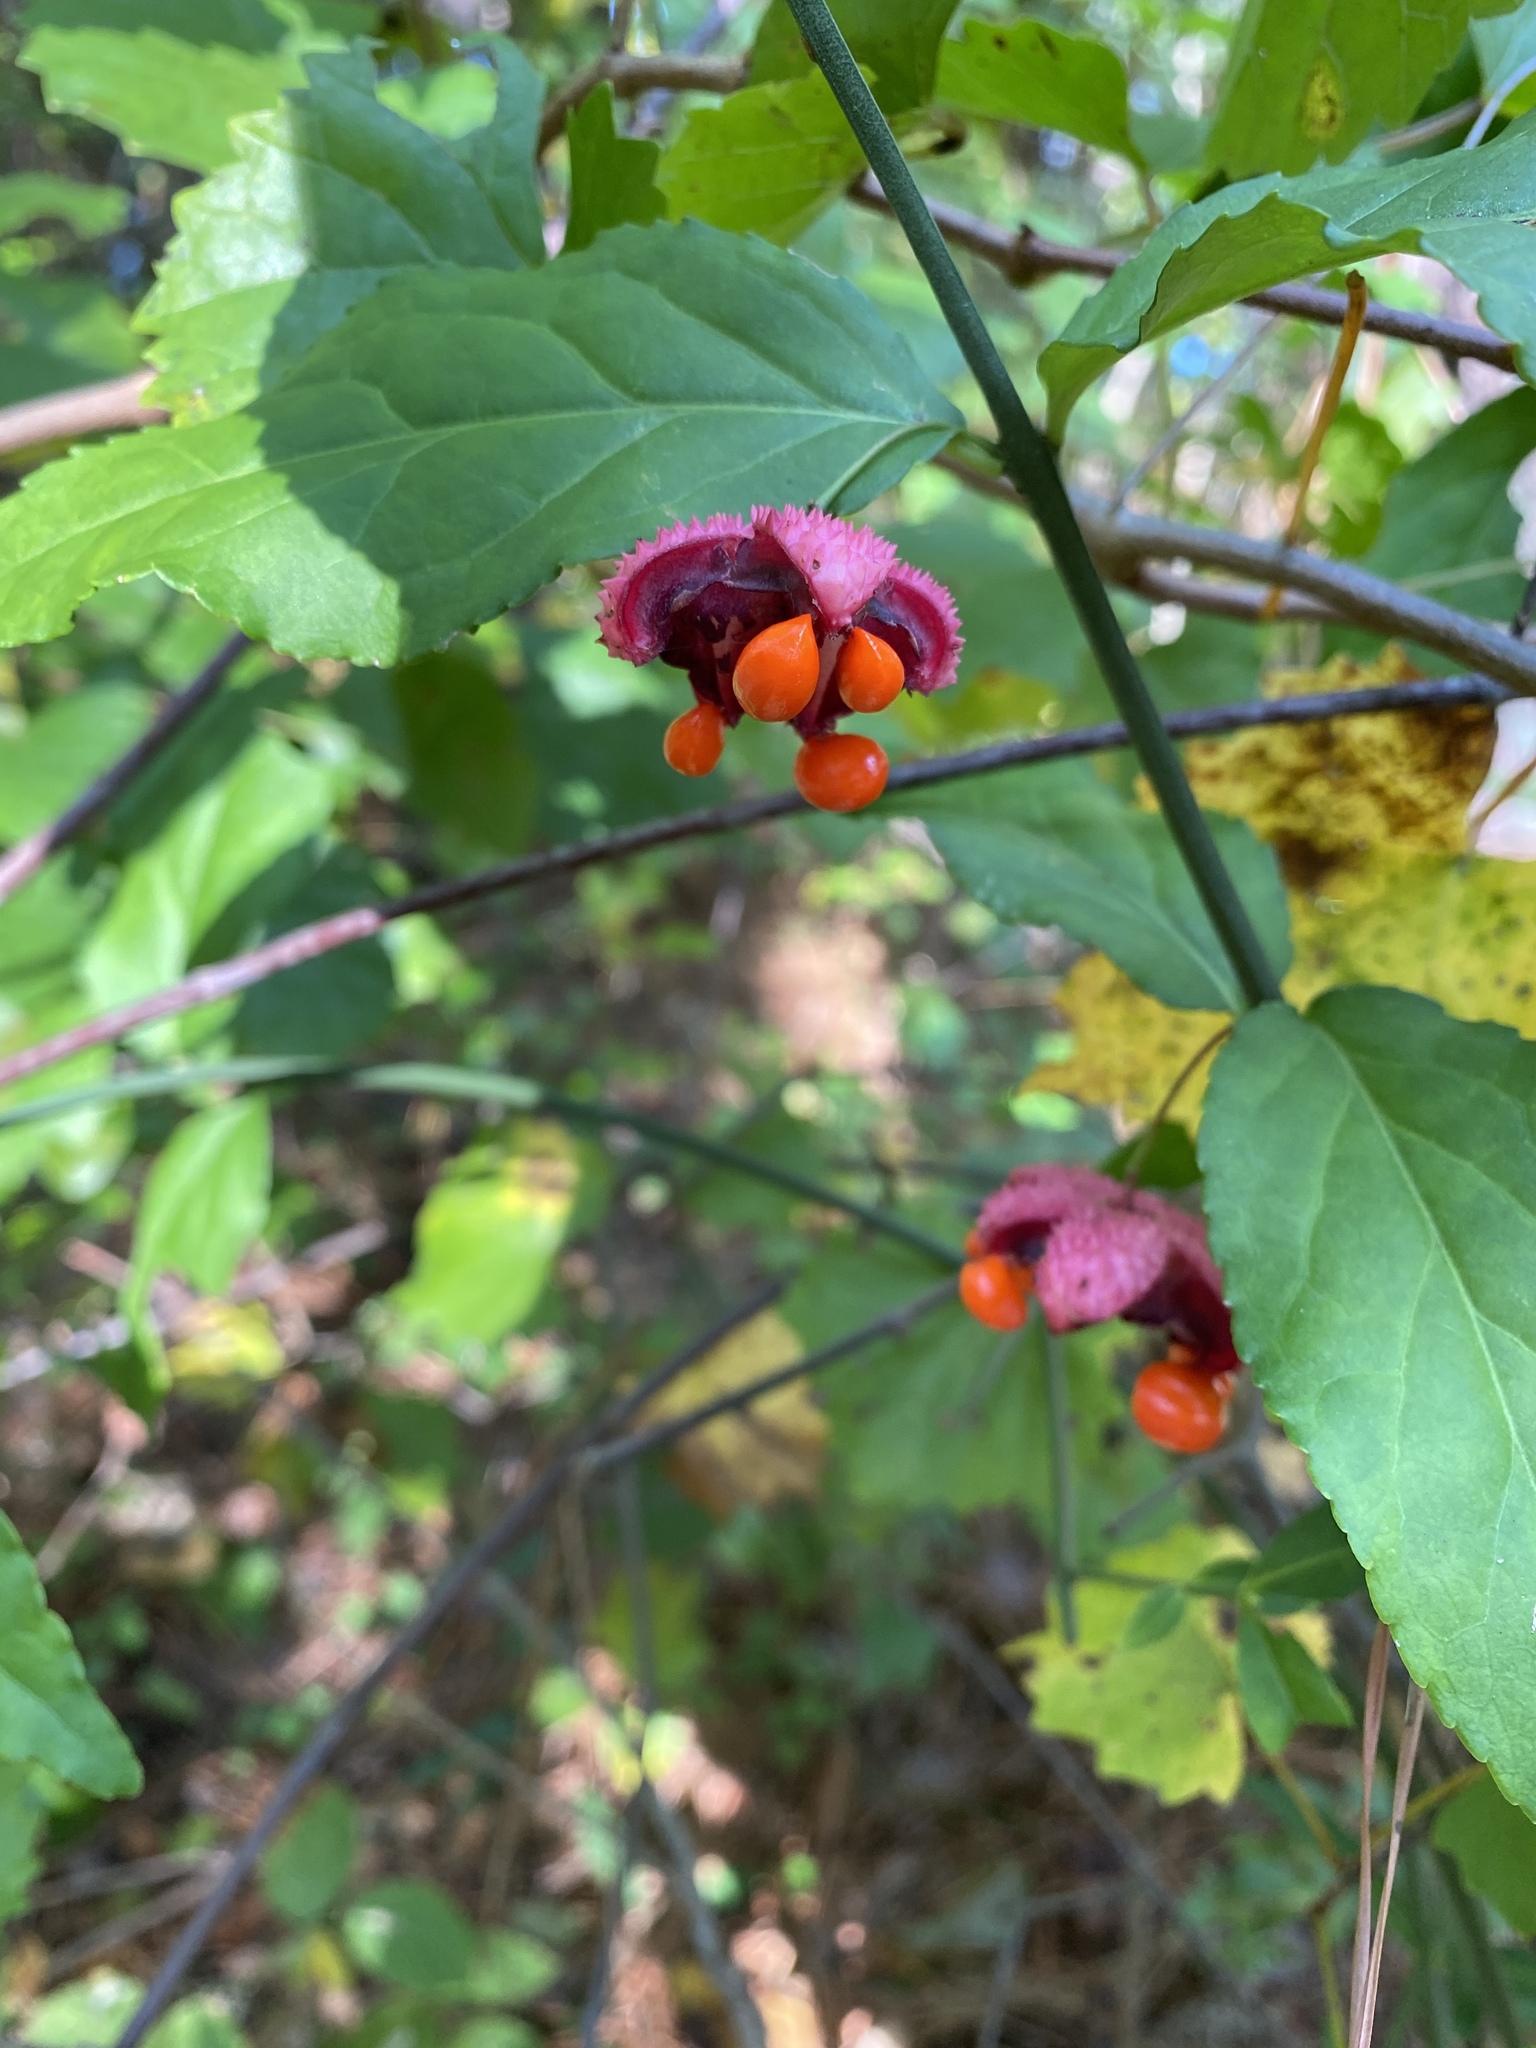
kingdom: Plantae
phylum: Tracheophyta
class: Magnoliopsida
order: Celastrales
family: Celastraceae
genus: Euonymus
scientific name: Euonymus americanus
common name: Bursting-heart
